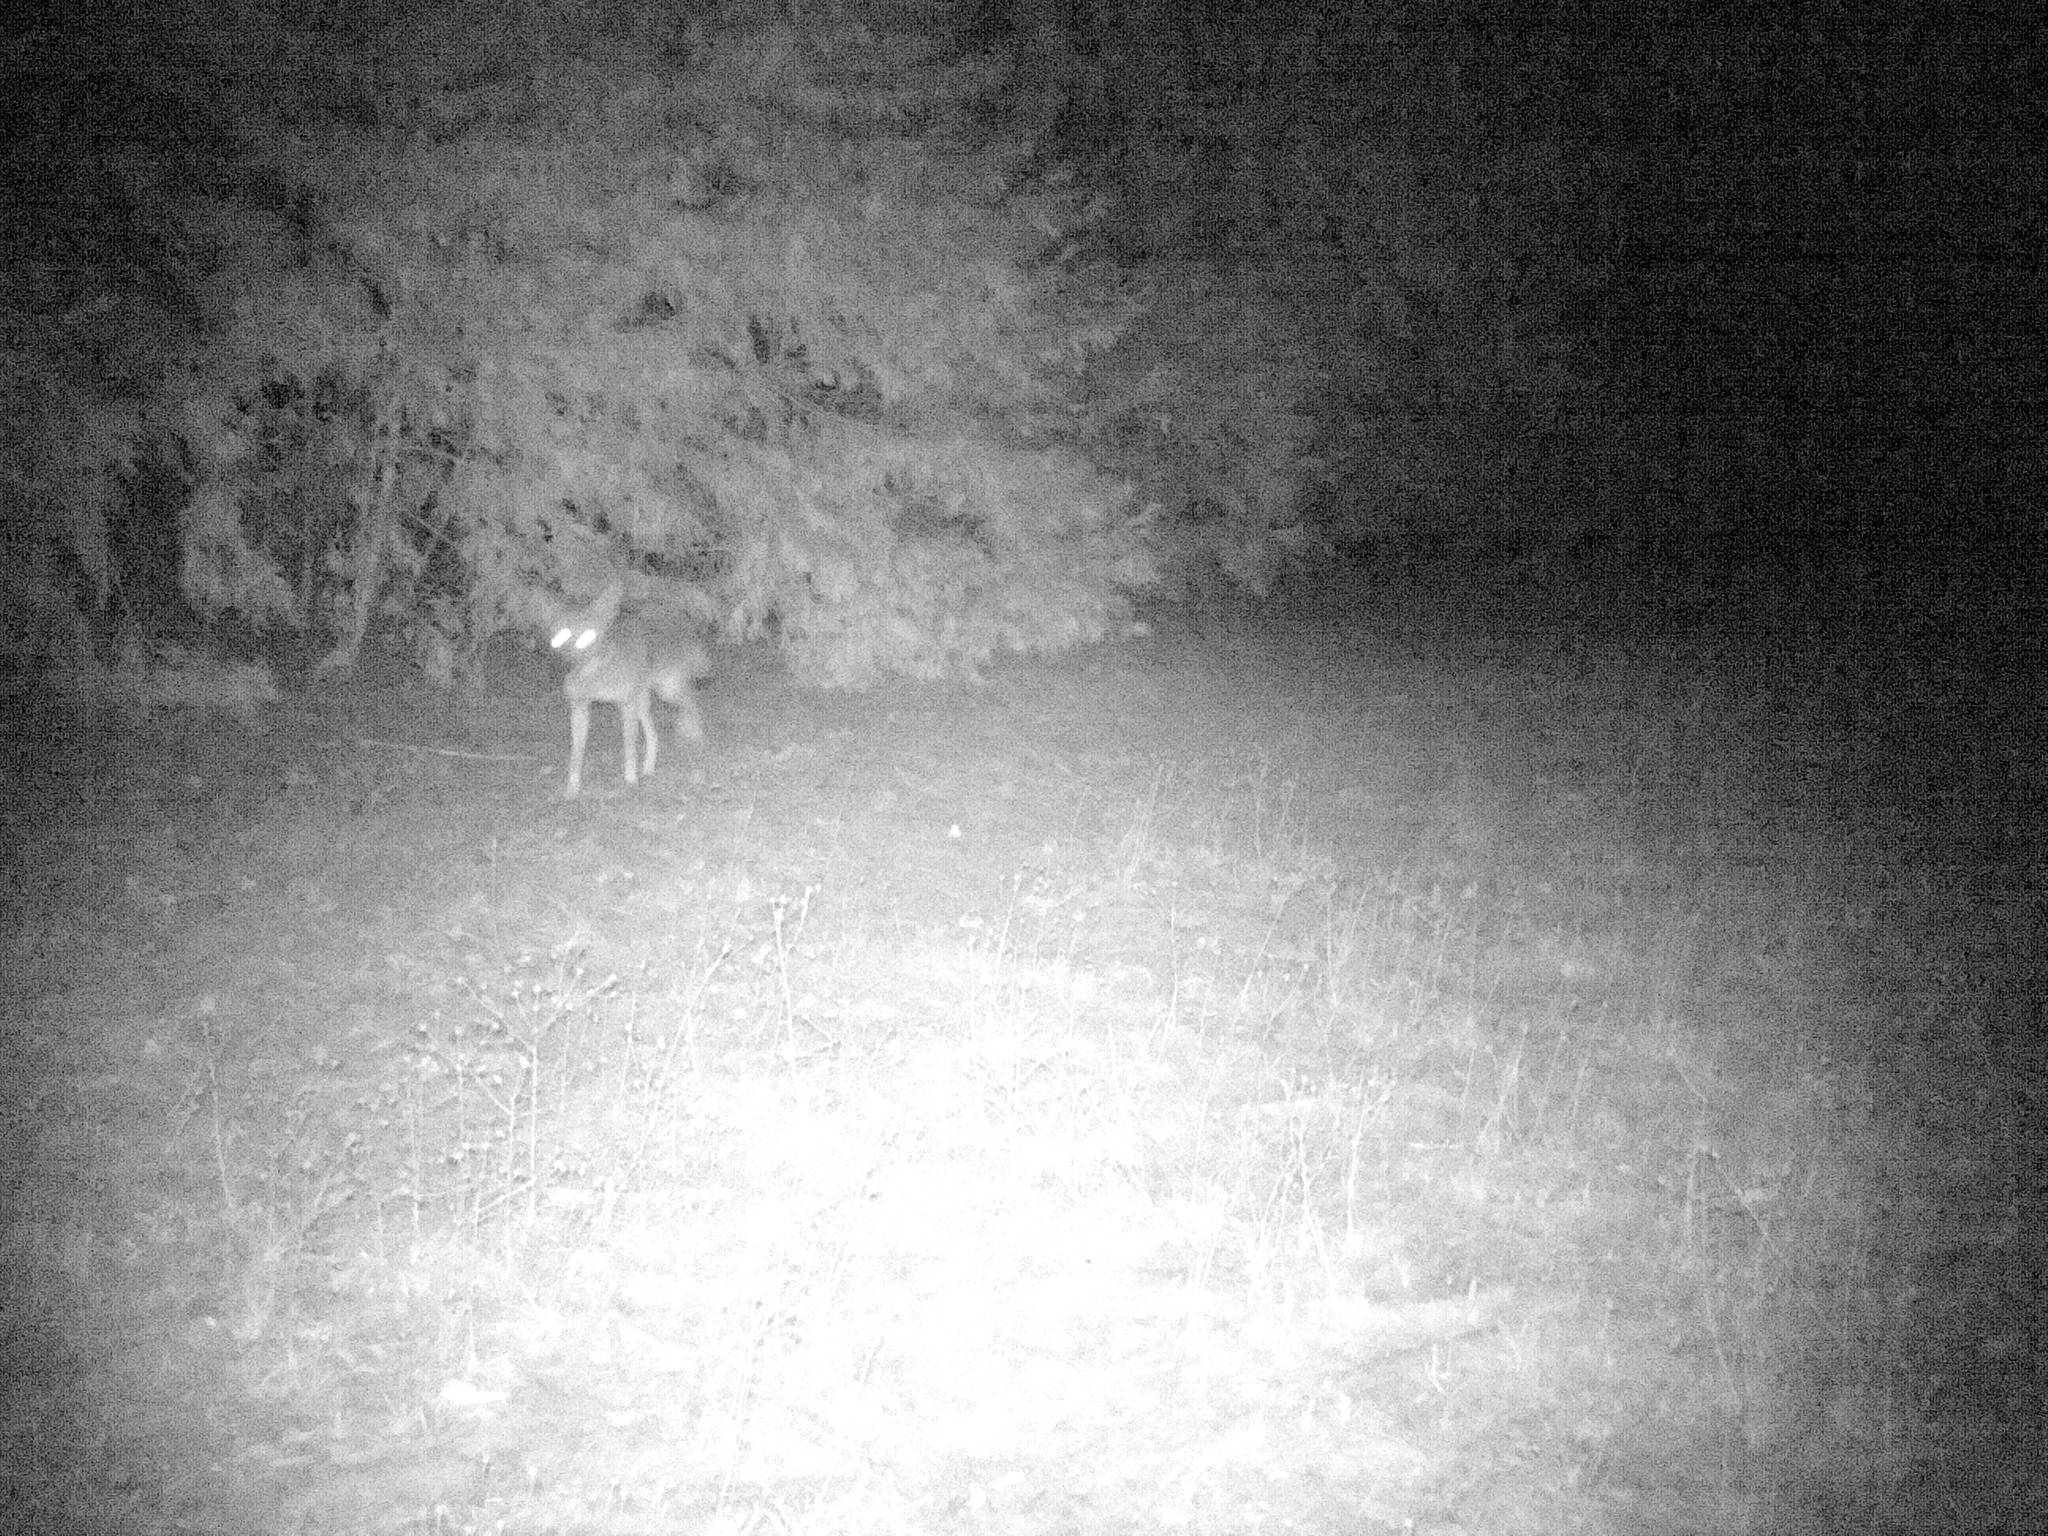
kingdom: Animalia
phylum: Chordata
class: Mammalia
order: Carnivora
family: Canidae
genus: Canis
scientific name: Canis latrans
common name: Coyote
